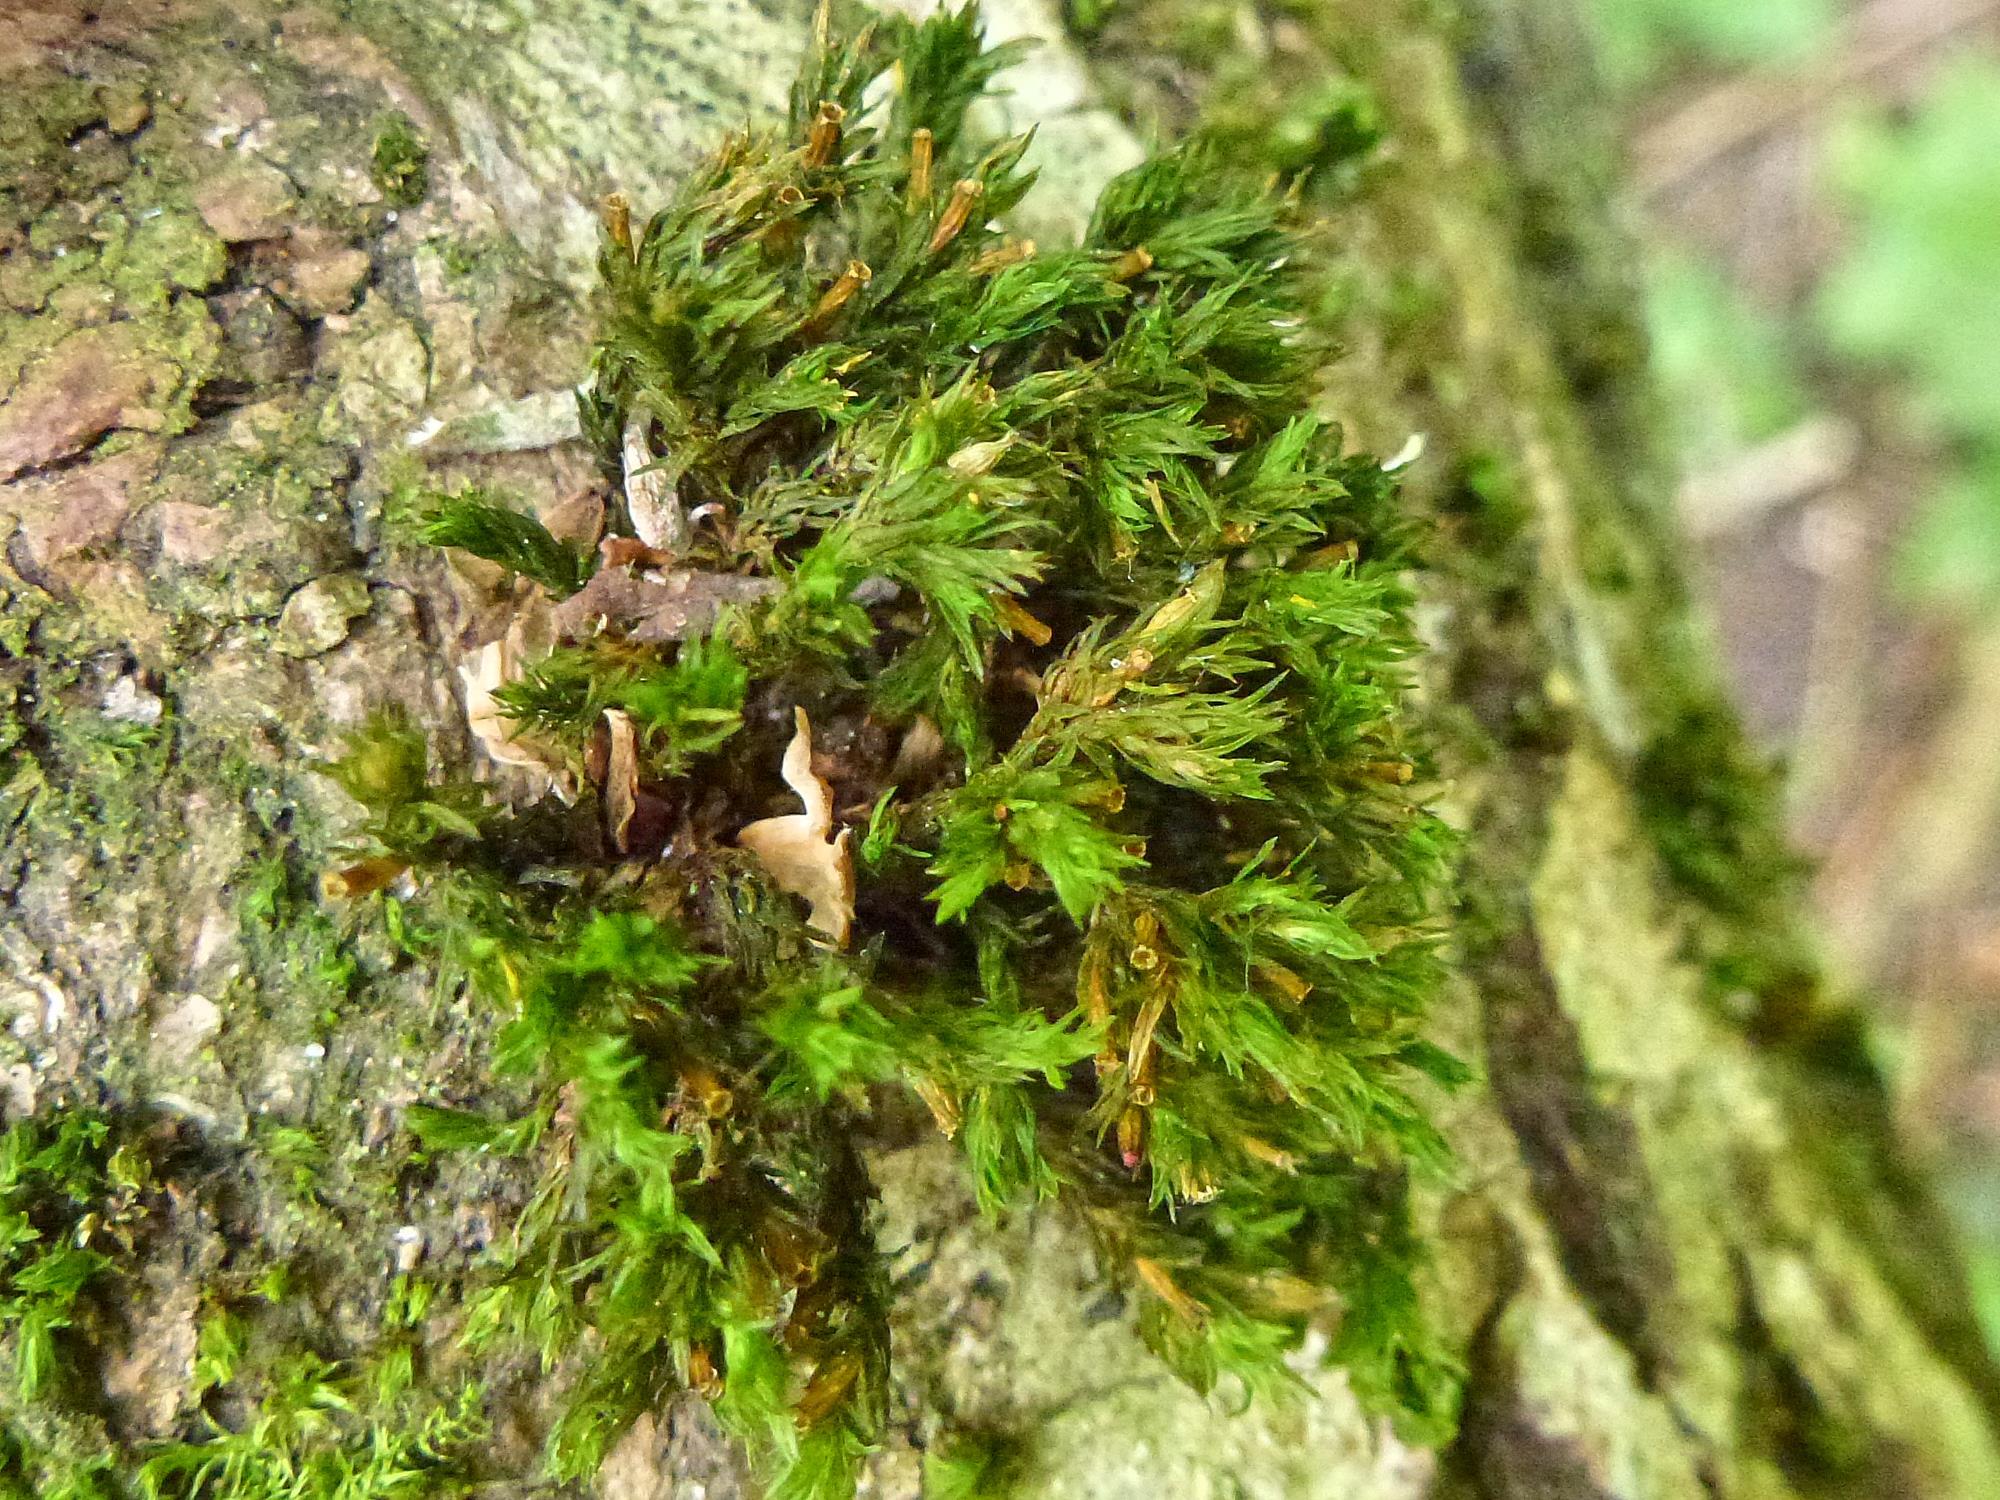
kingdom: Plantae
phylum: Bryophyta
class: Bryopsida
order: Orthotrichales
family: Orthotrichaceae
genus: Lewinskya
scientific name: Lewinskya affinis
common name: Wood bristle-moss
